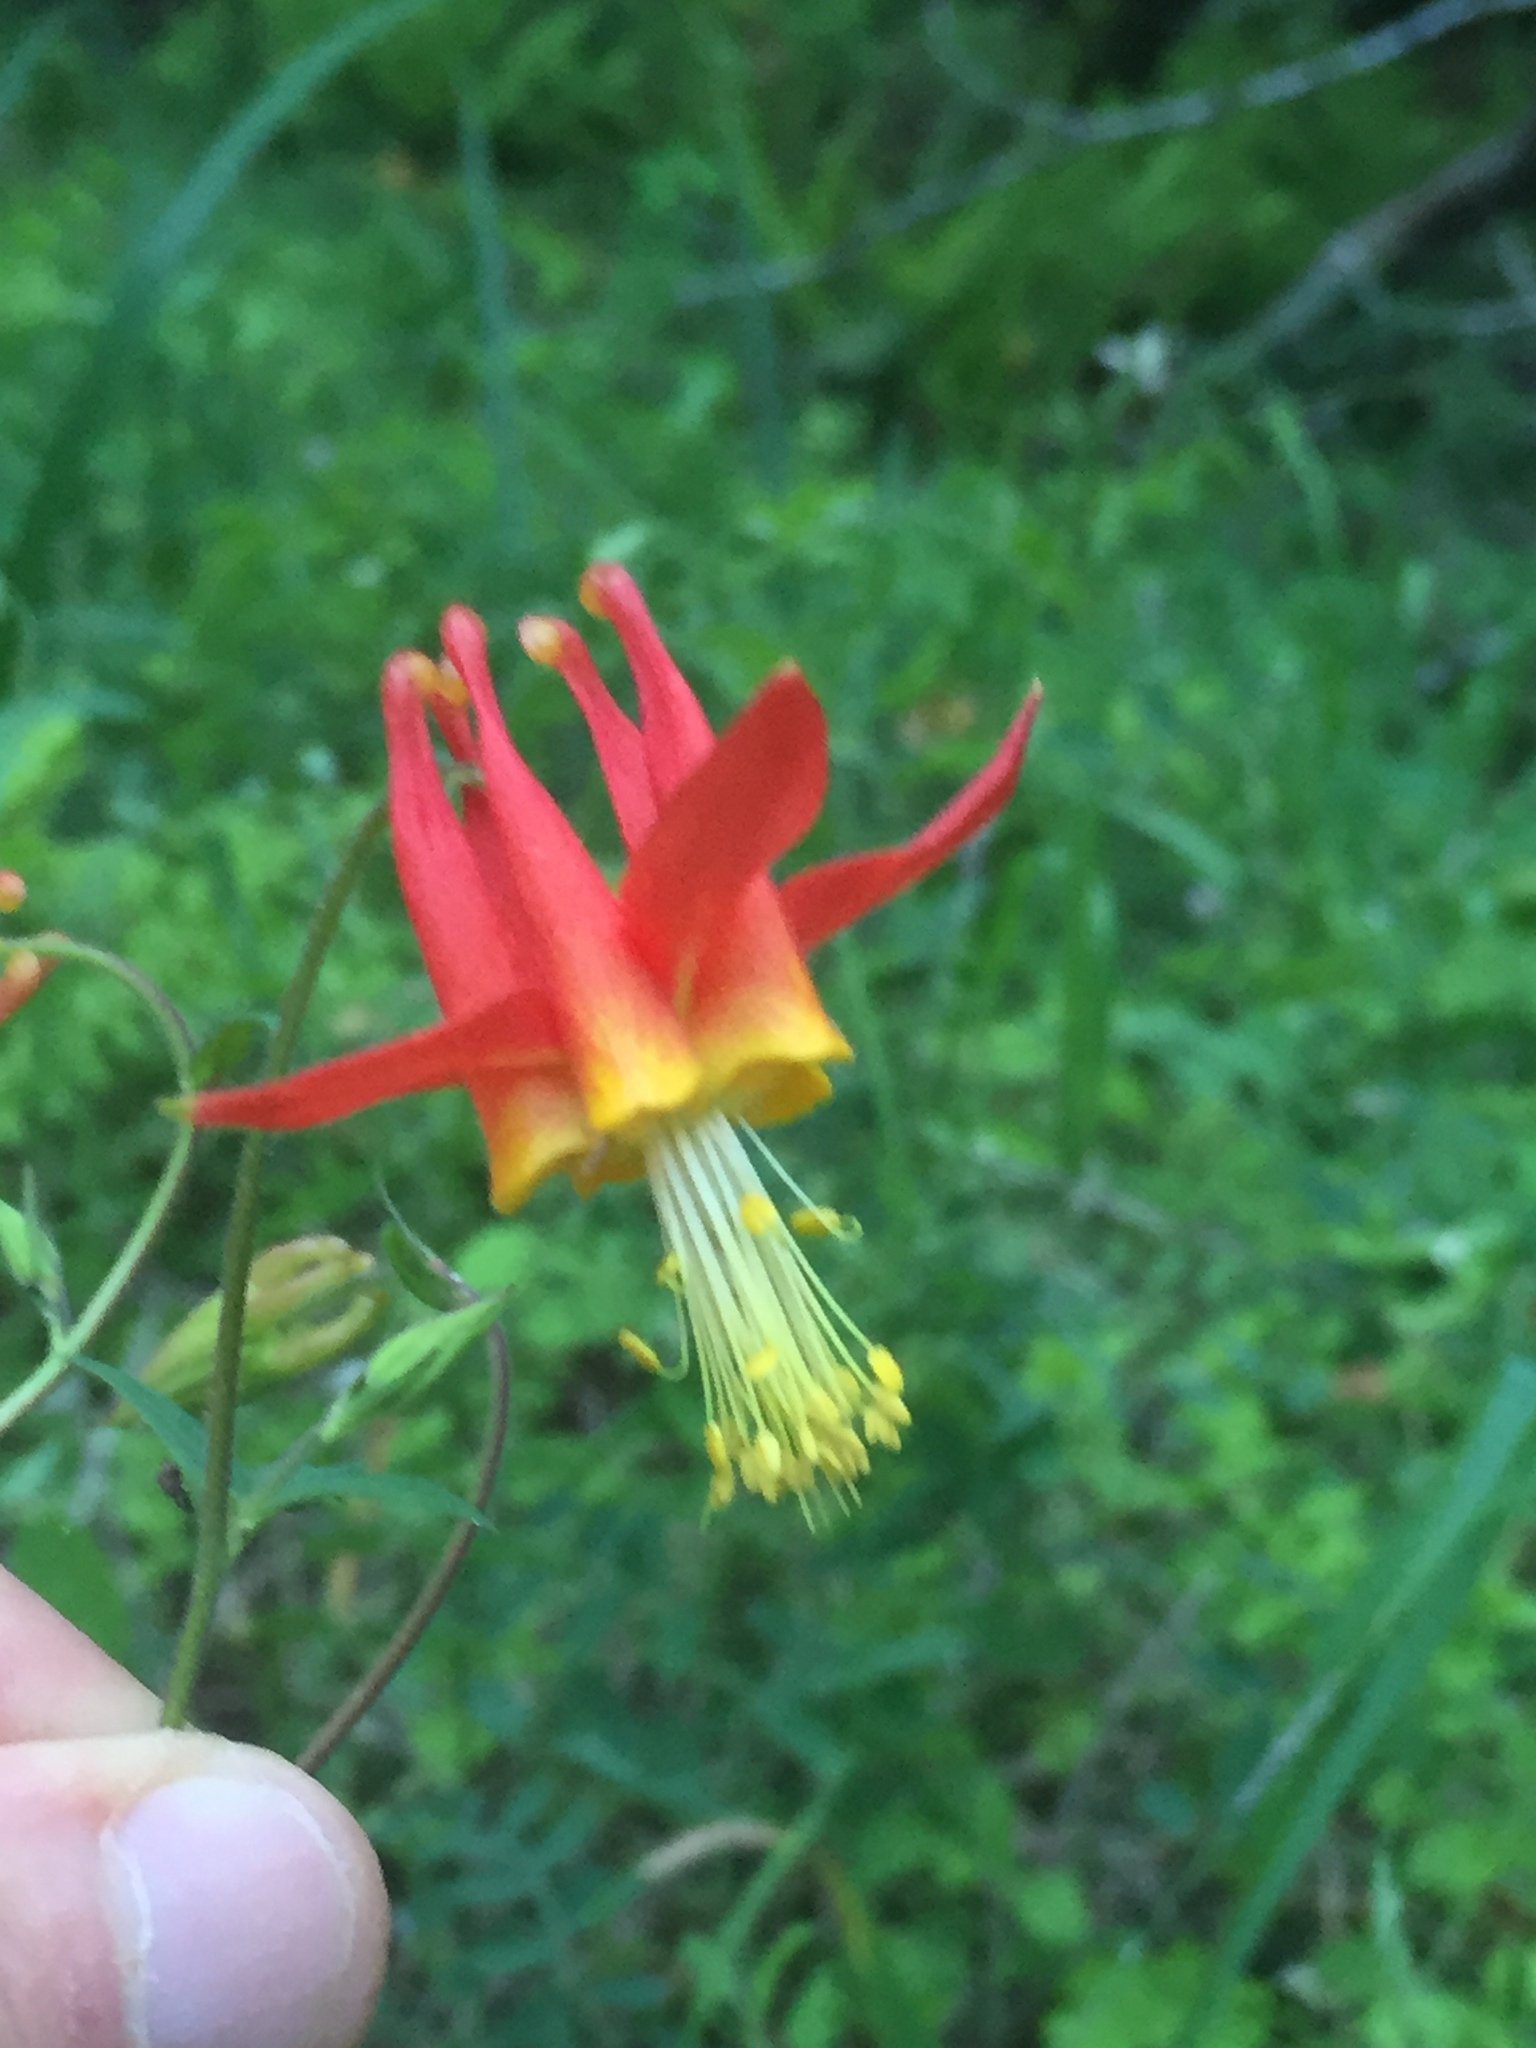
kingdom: Plantae
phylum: Tracheophyta
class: Magnoliopsida
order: Ranunculales
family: Ranunculaceae
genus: Aquilegia
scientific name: Aquilegia formosa
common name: Sitka columbine
